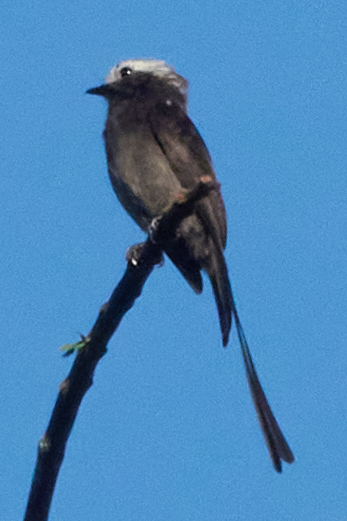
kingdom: Animalia
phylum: Chordata
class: Aves
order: Passeriformes
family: Tyrannidae
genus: Colonia
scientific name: Colonia colonus
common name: Long-tailed tyrant
